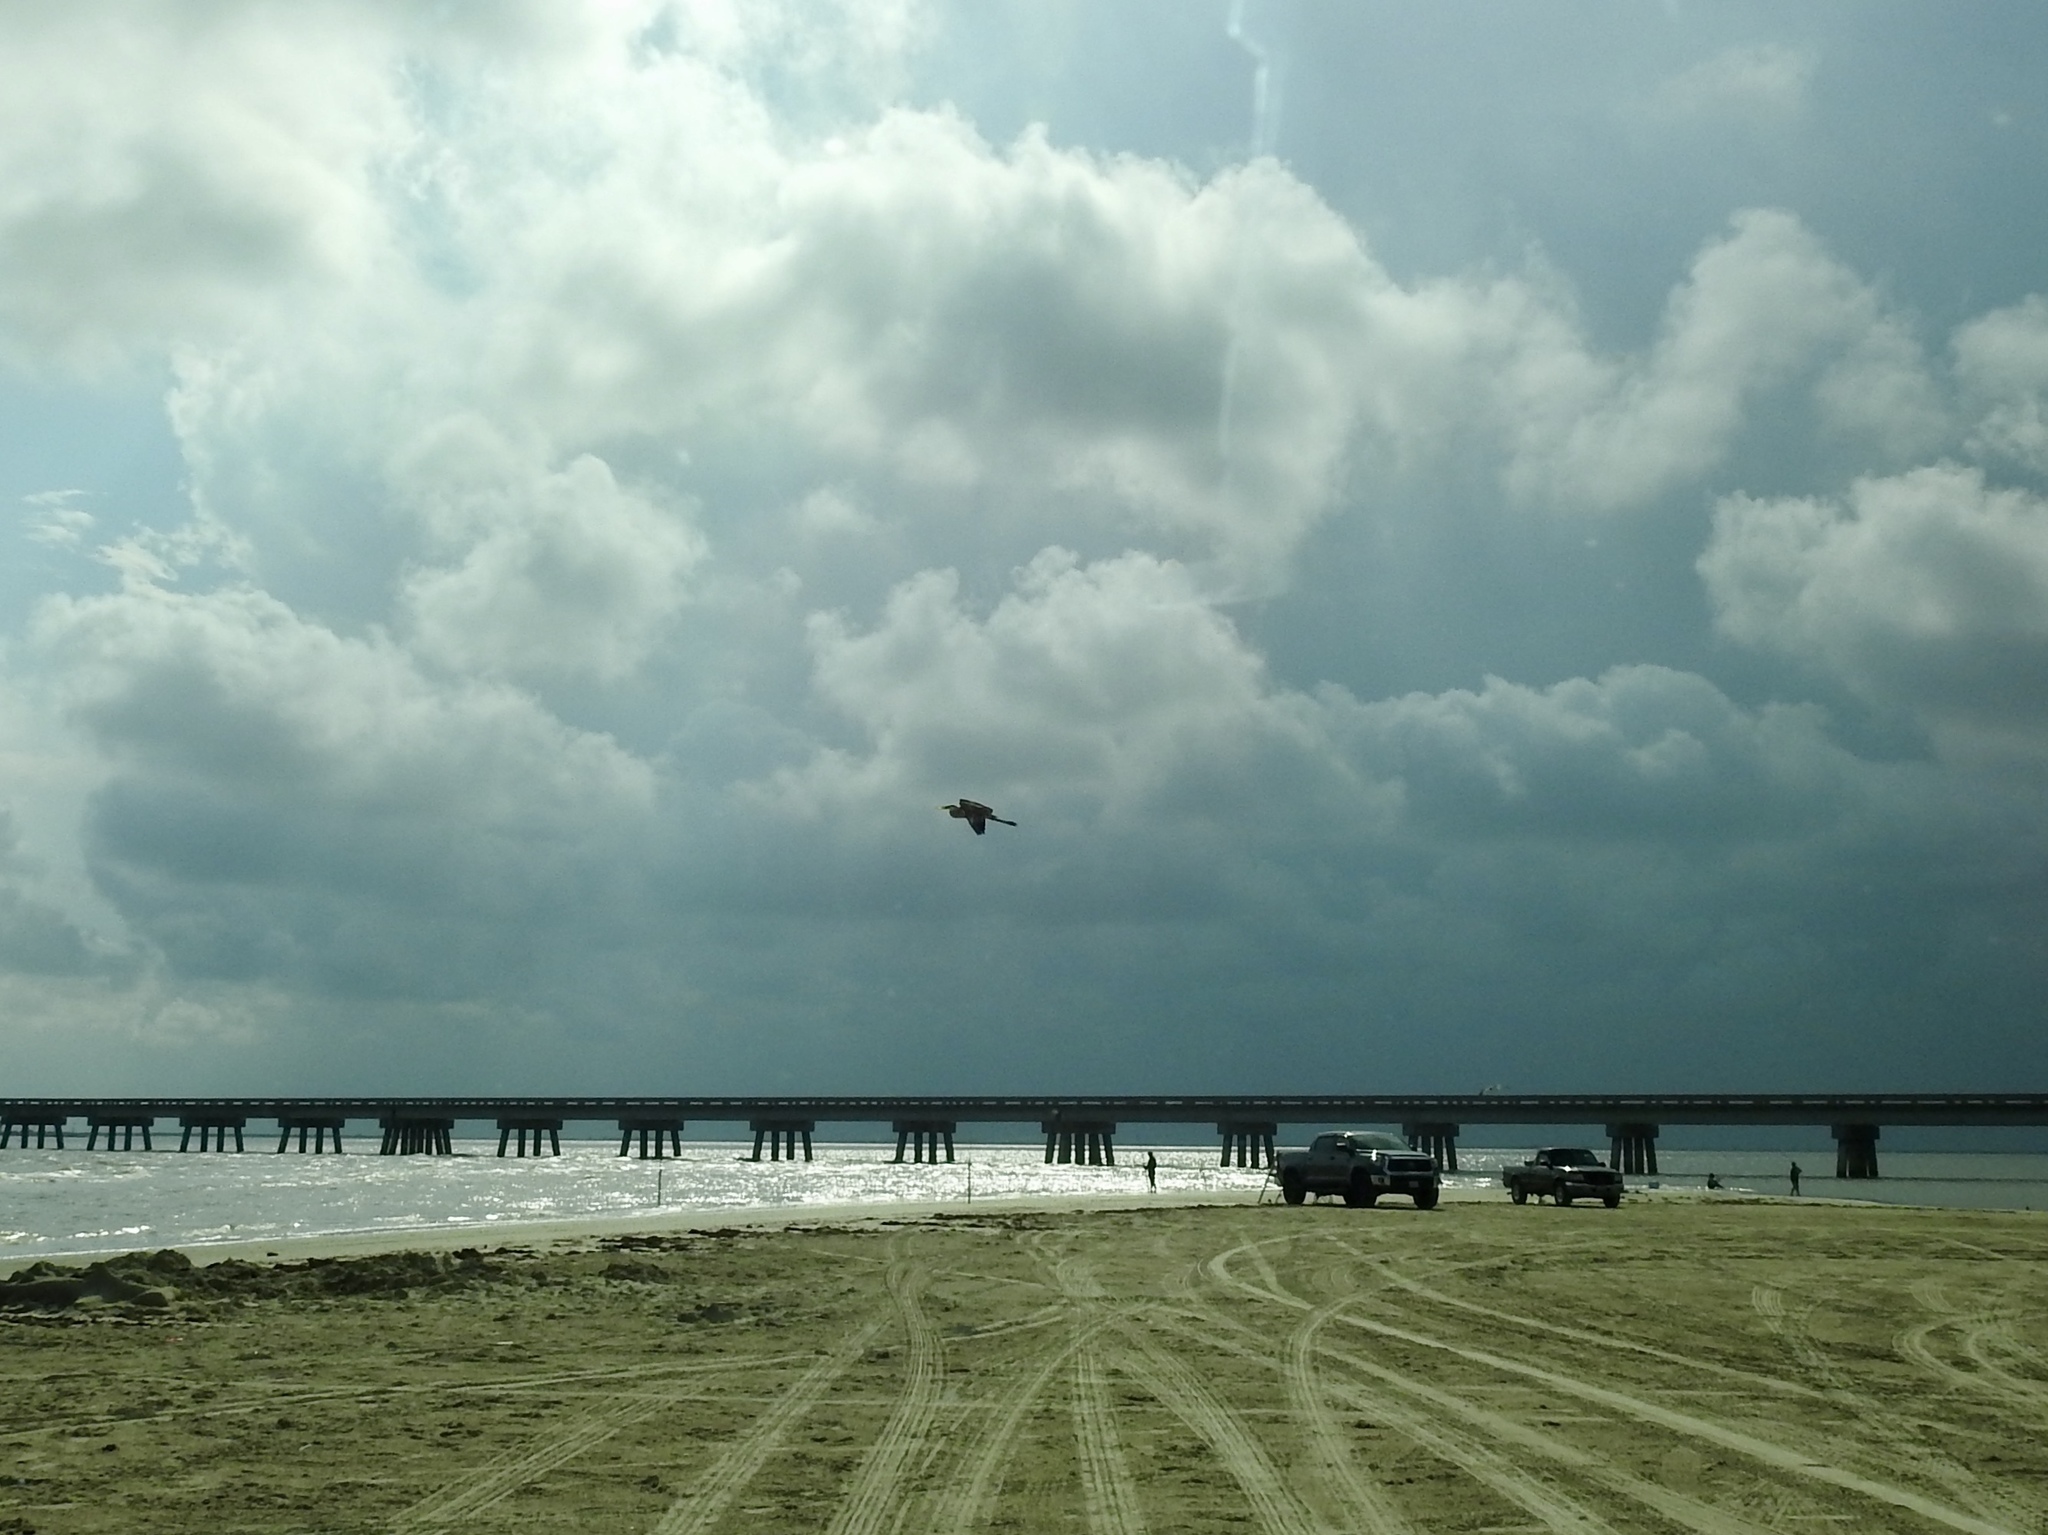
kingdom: Animalia
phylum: Chordata
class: Aves
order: Pelecaniformes
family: Ardeidae
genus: Ardea
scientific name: Ardea herodias
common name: Great blue heron
